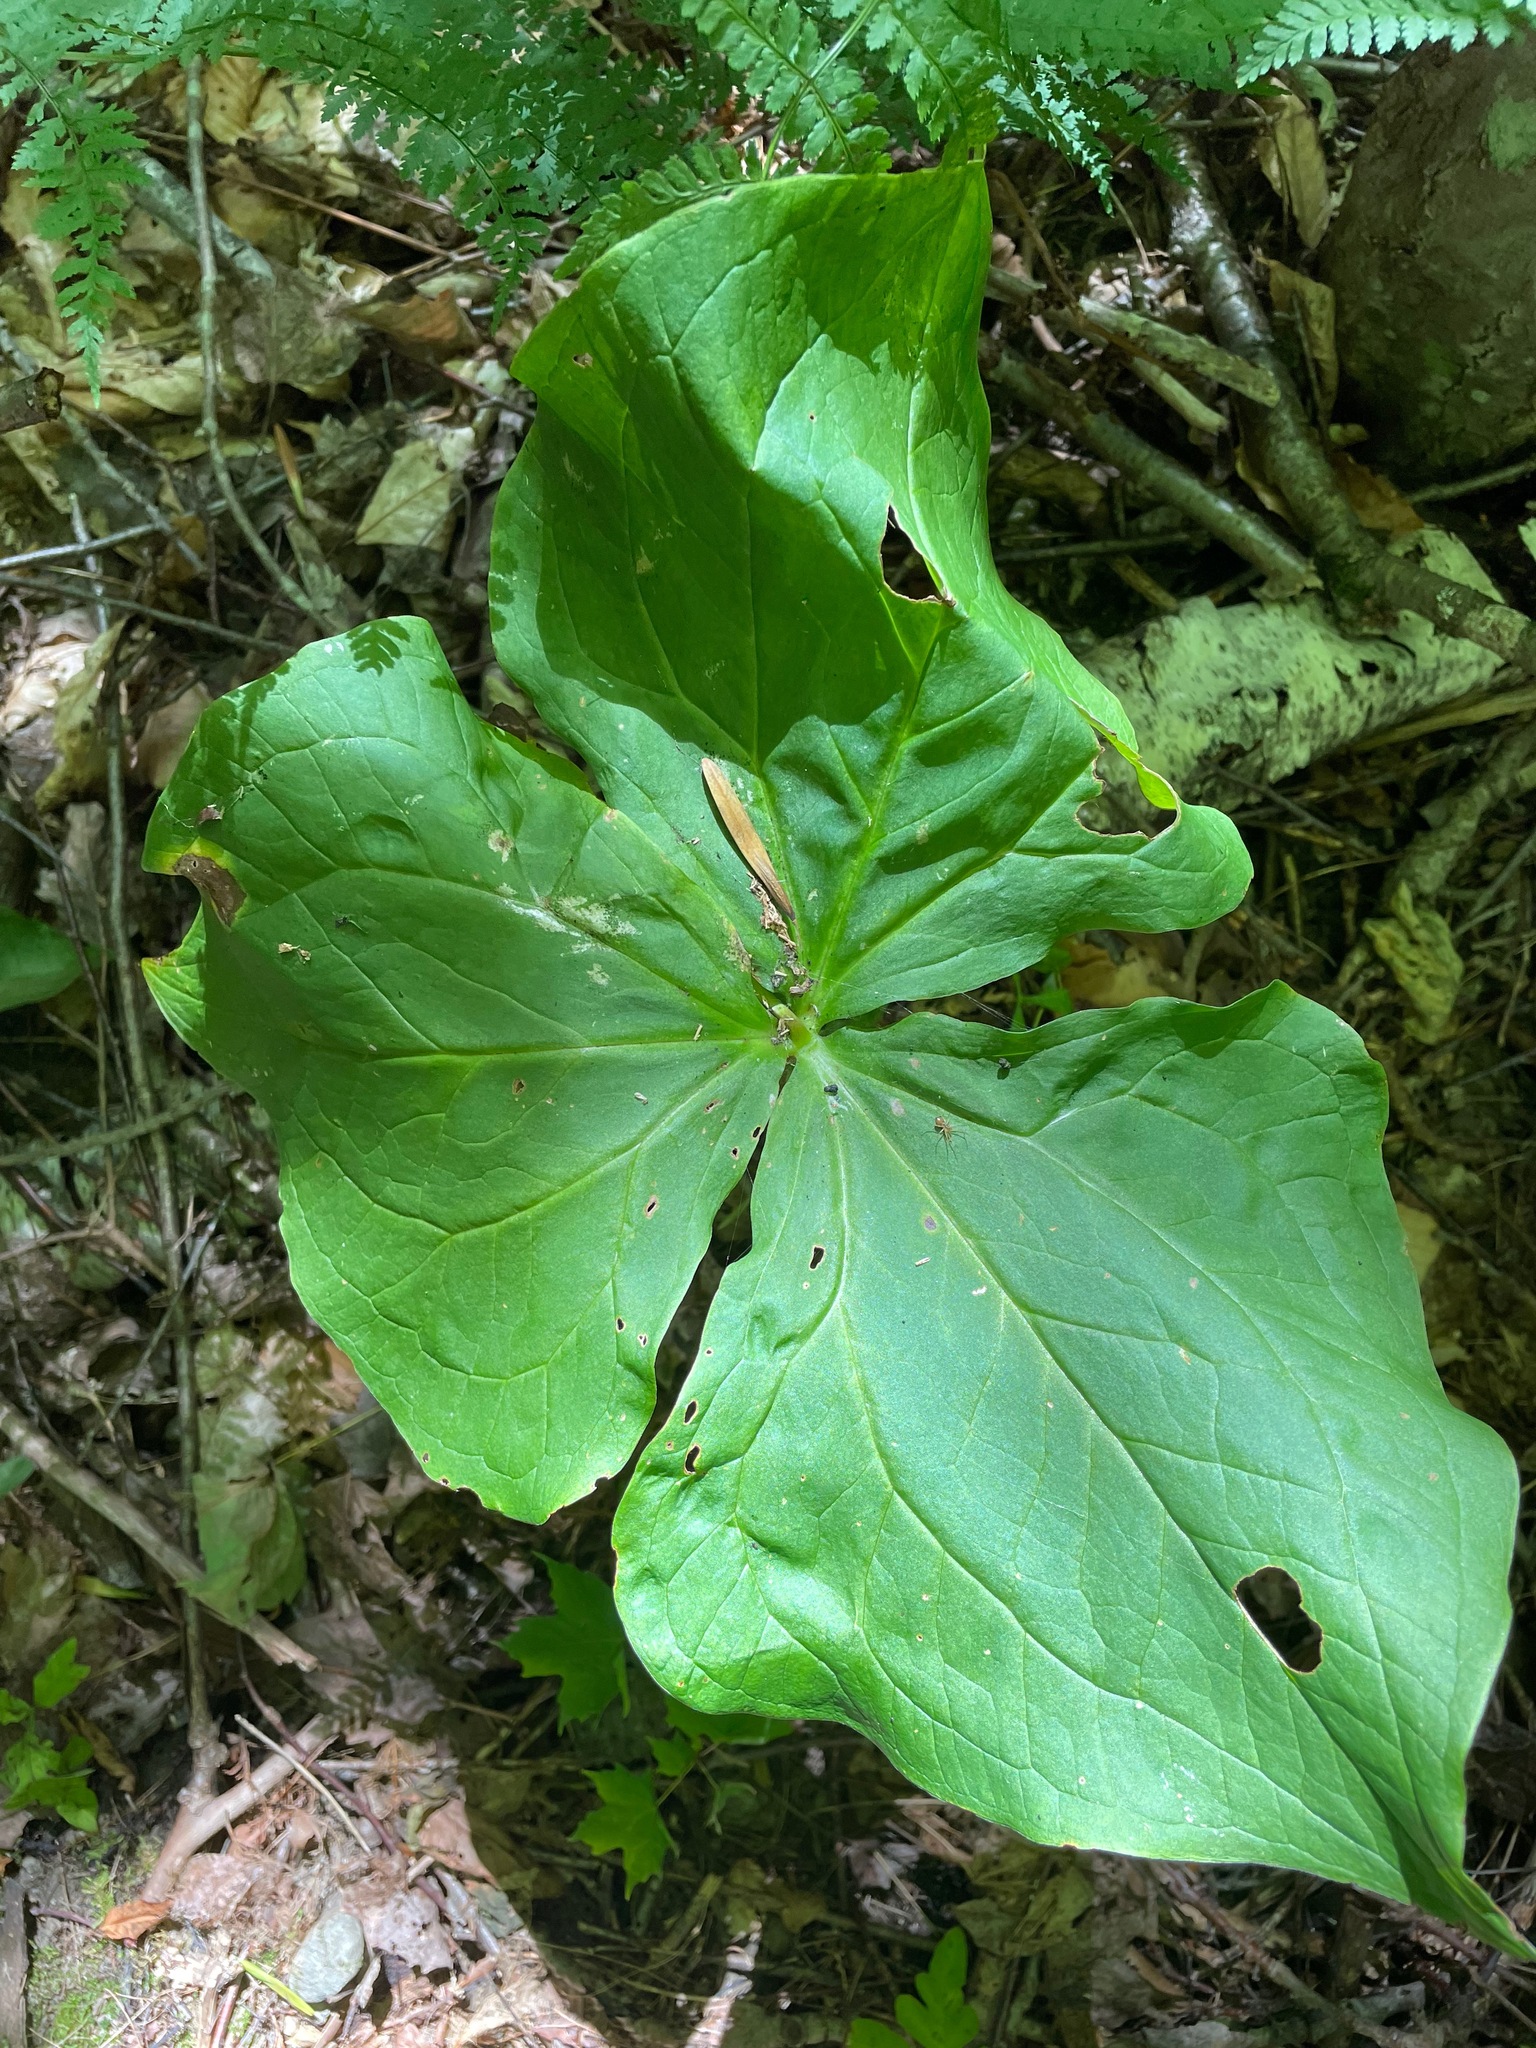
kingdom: Plantae
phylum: Tracheophyta
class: Liliopsida
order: Liliales
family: Melanthiaceae
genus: Trillium
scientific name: Trillium erectum
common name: Purple trillium
